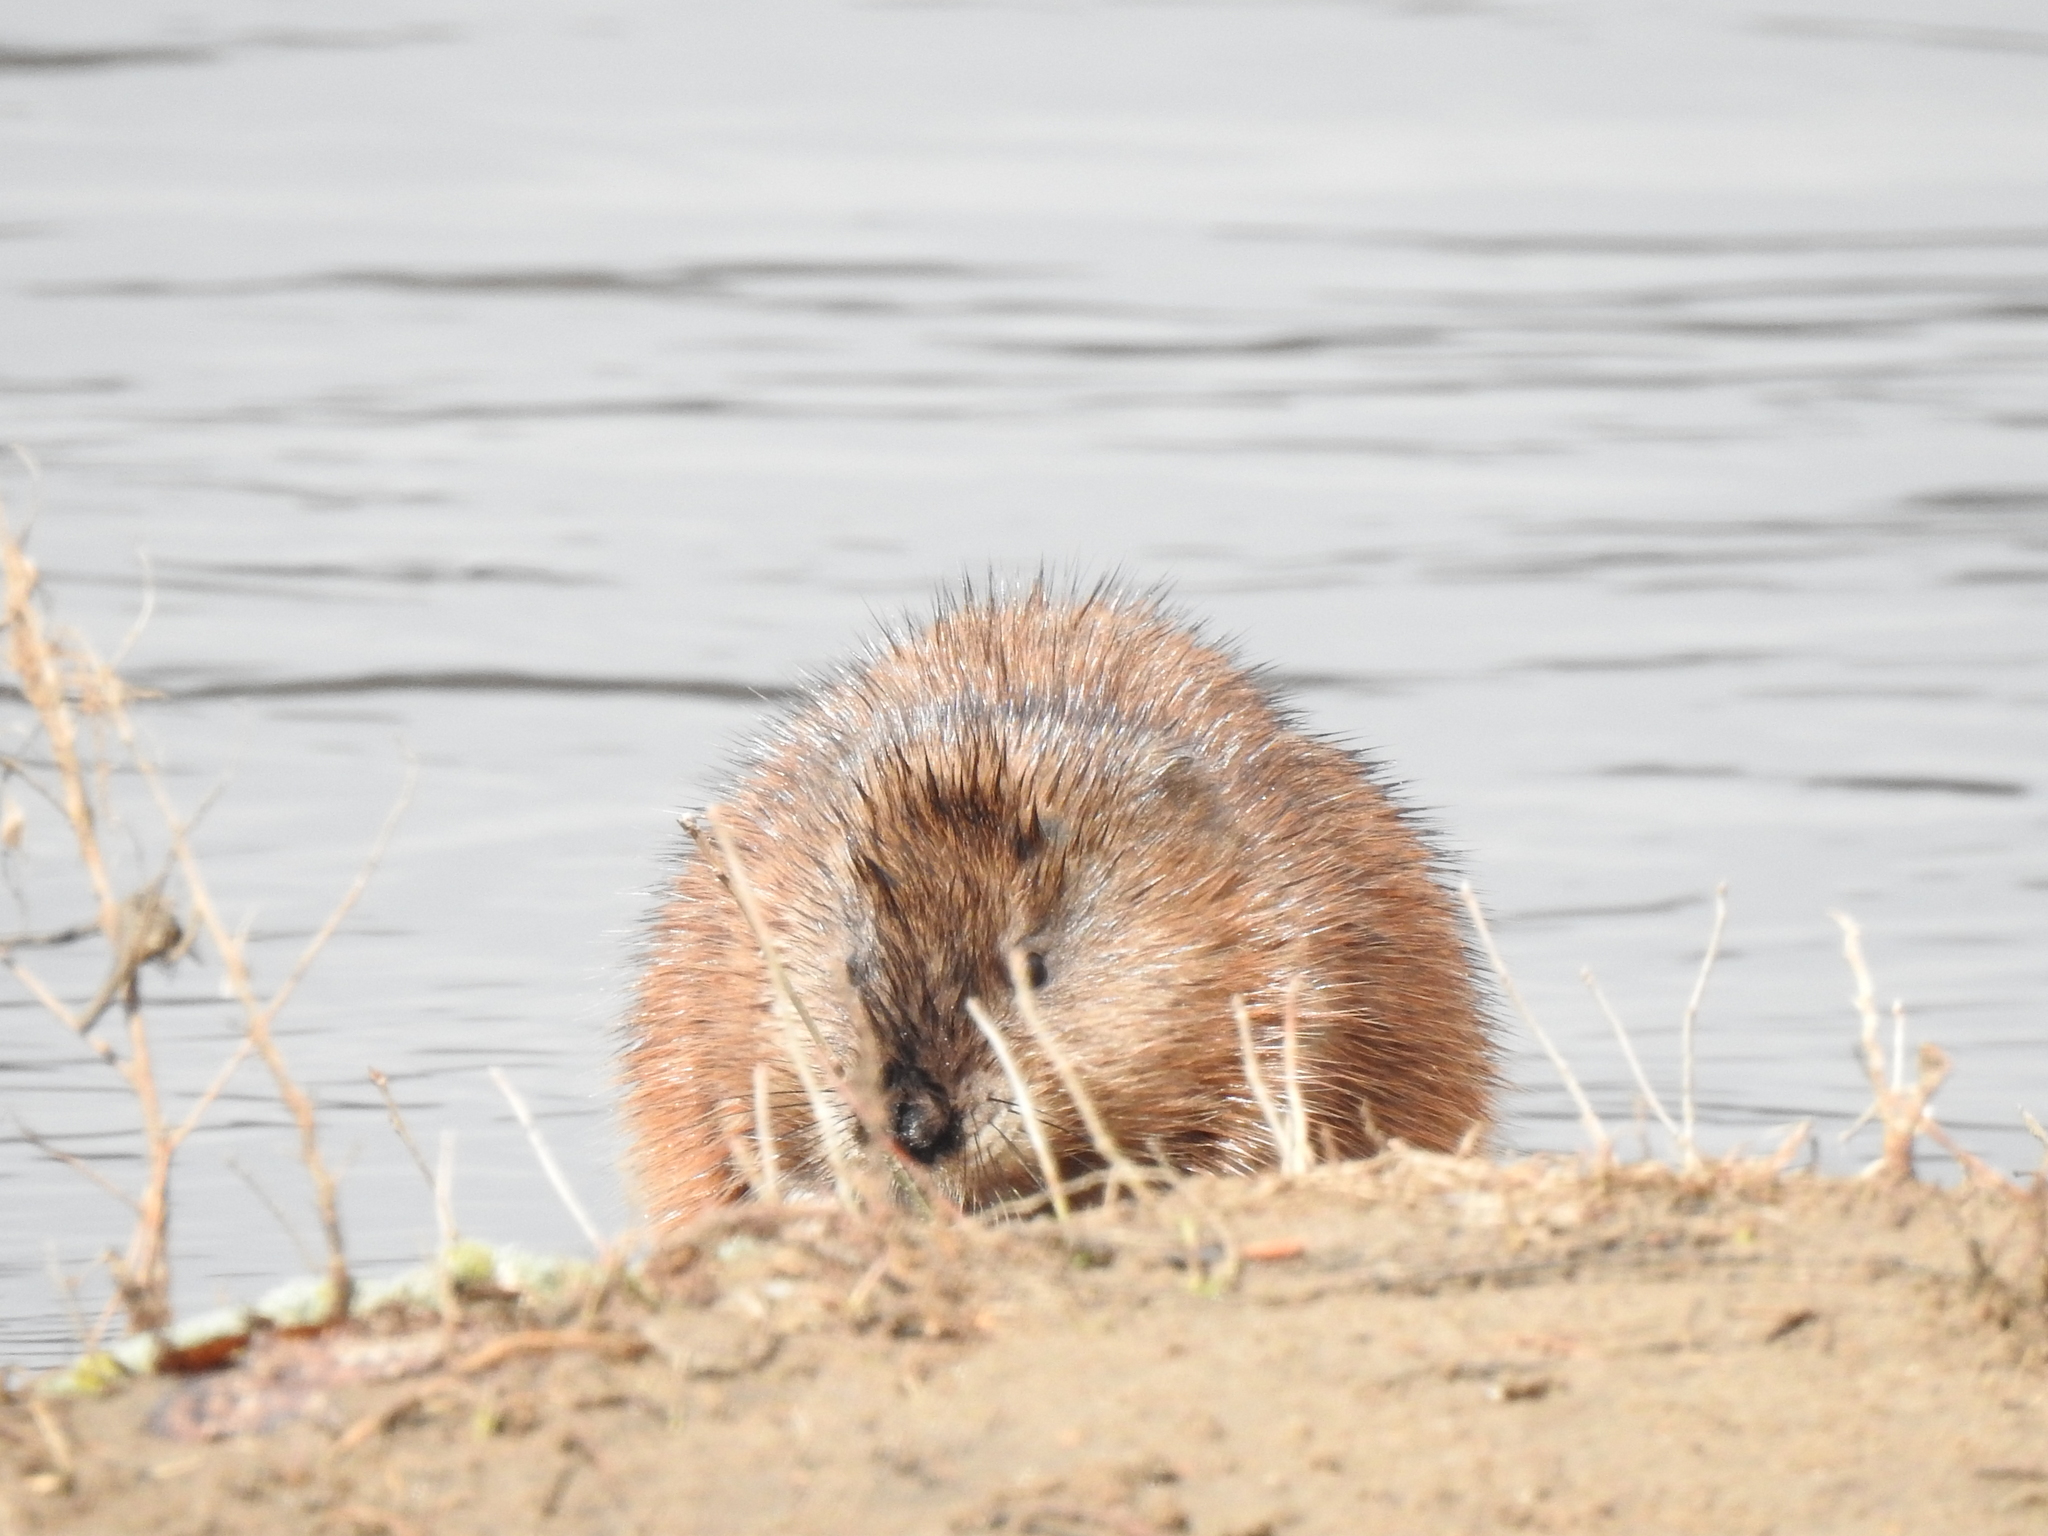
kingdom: Animalia
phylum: Chordata
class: Mammalia
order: Rodentia
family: Cricetidae
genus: Ondatra
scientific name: Ondatra zibethicus
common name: Muskrat
